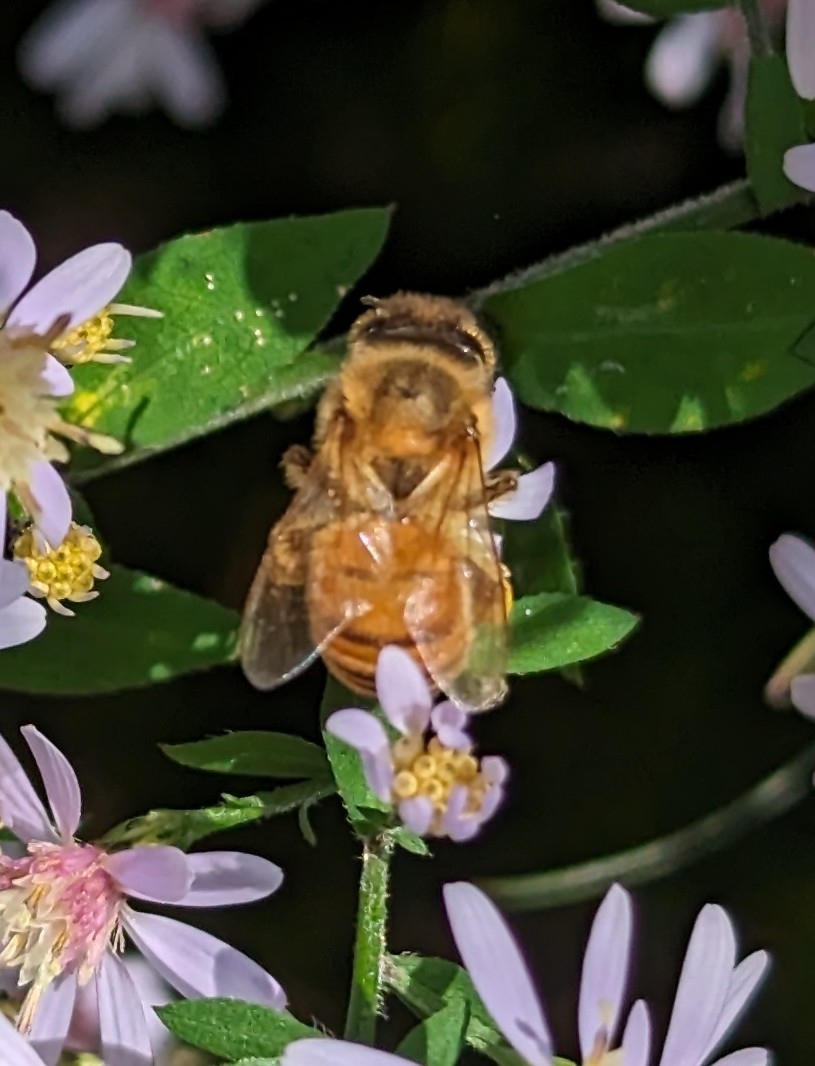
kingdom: Animalia
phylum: Arthropoda
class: Insecta
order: Hymenoptera
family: Apidae
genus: Apis
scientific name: Apis mellifera
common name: Honey bee
